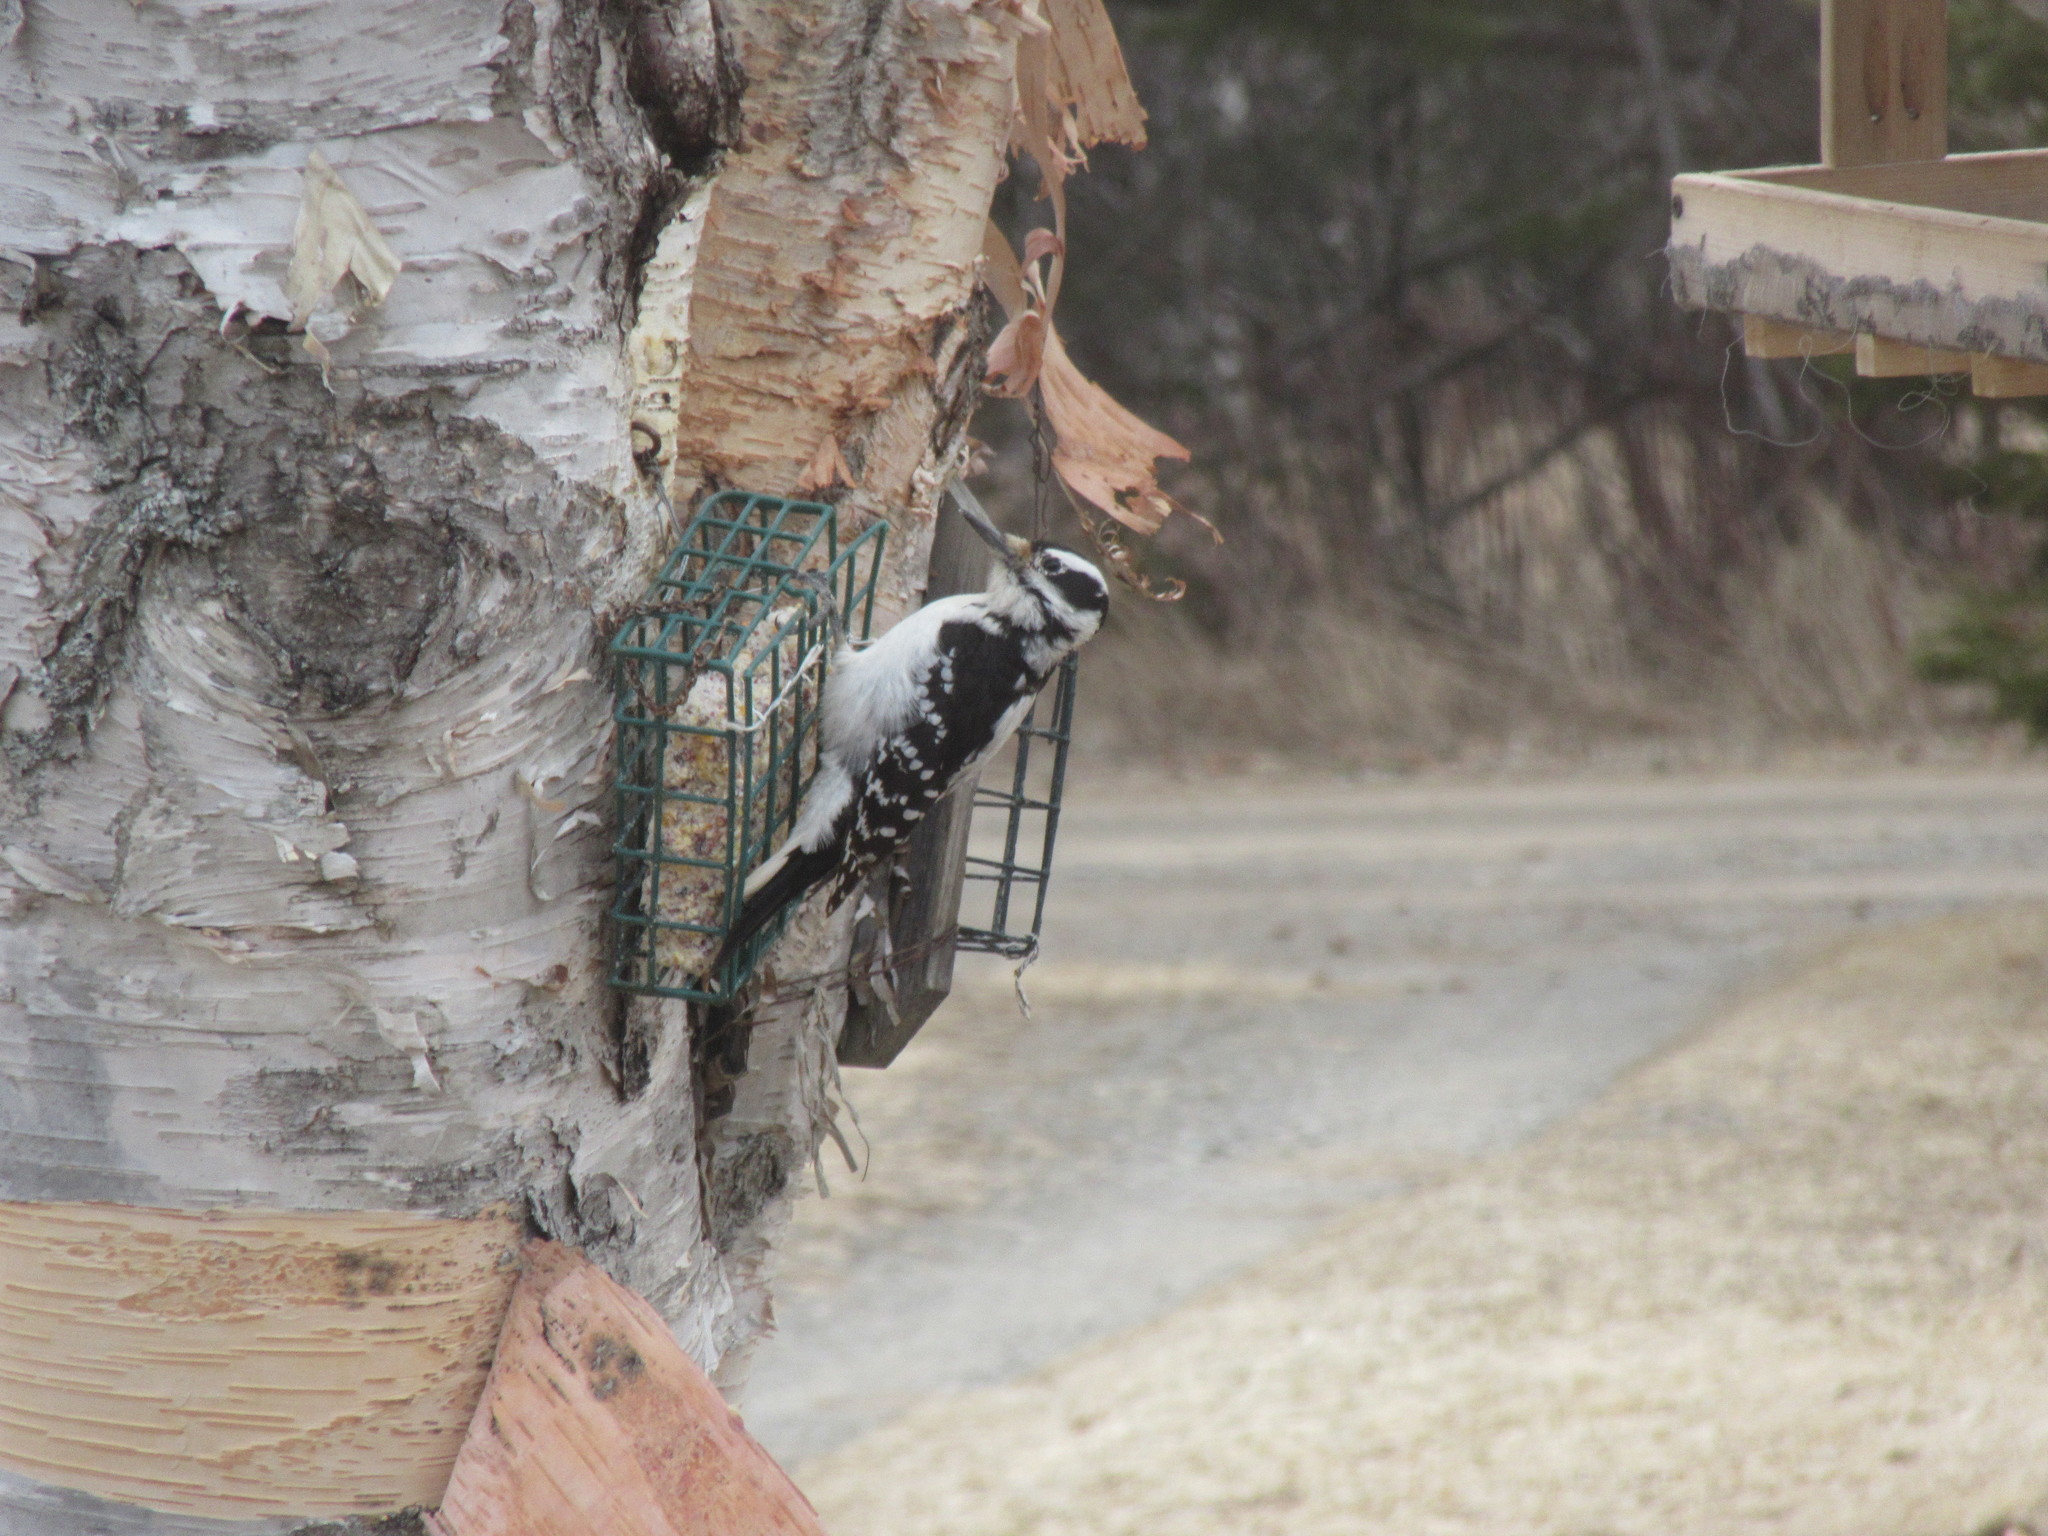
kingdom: Animalia
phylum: Chordata
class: Aves
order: Piciformes
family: Picidae
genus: Leuconotopicus
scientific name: Leuconotopicus villosus
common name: Hairy woodpecker
